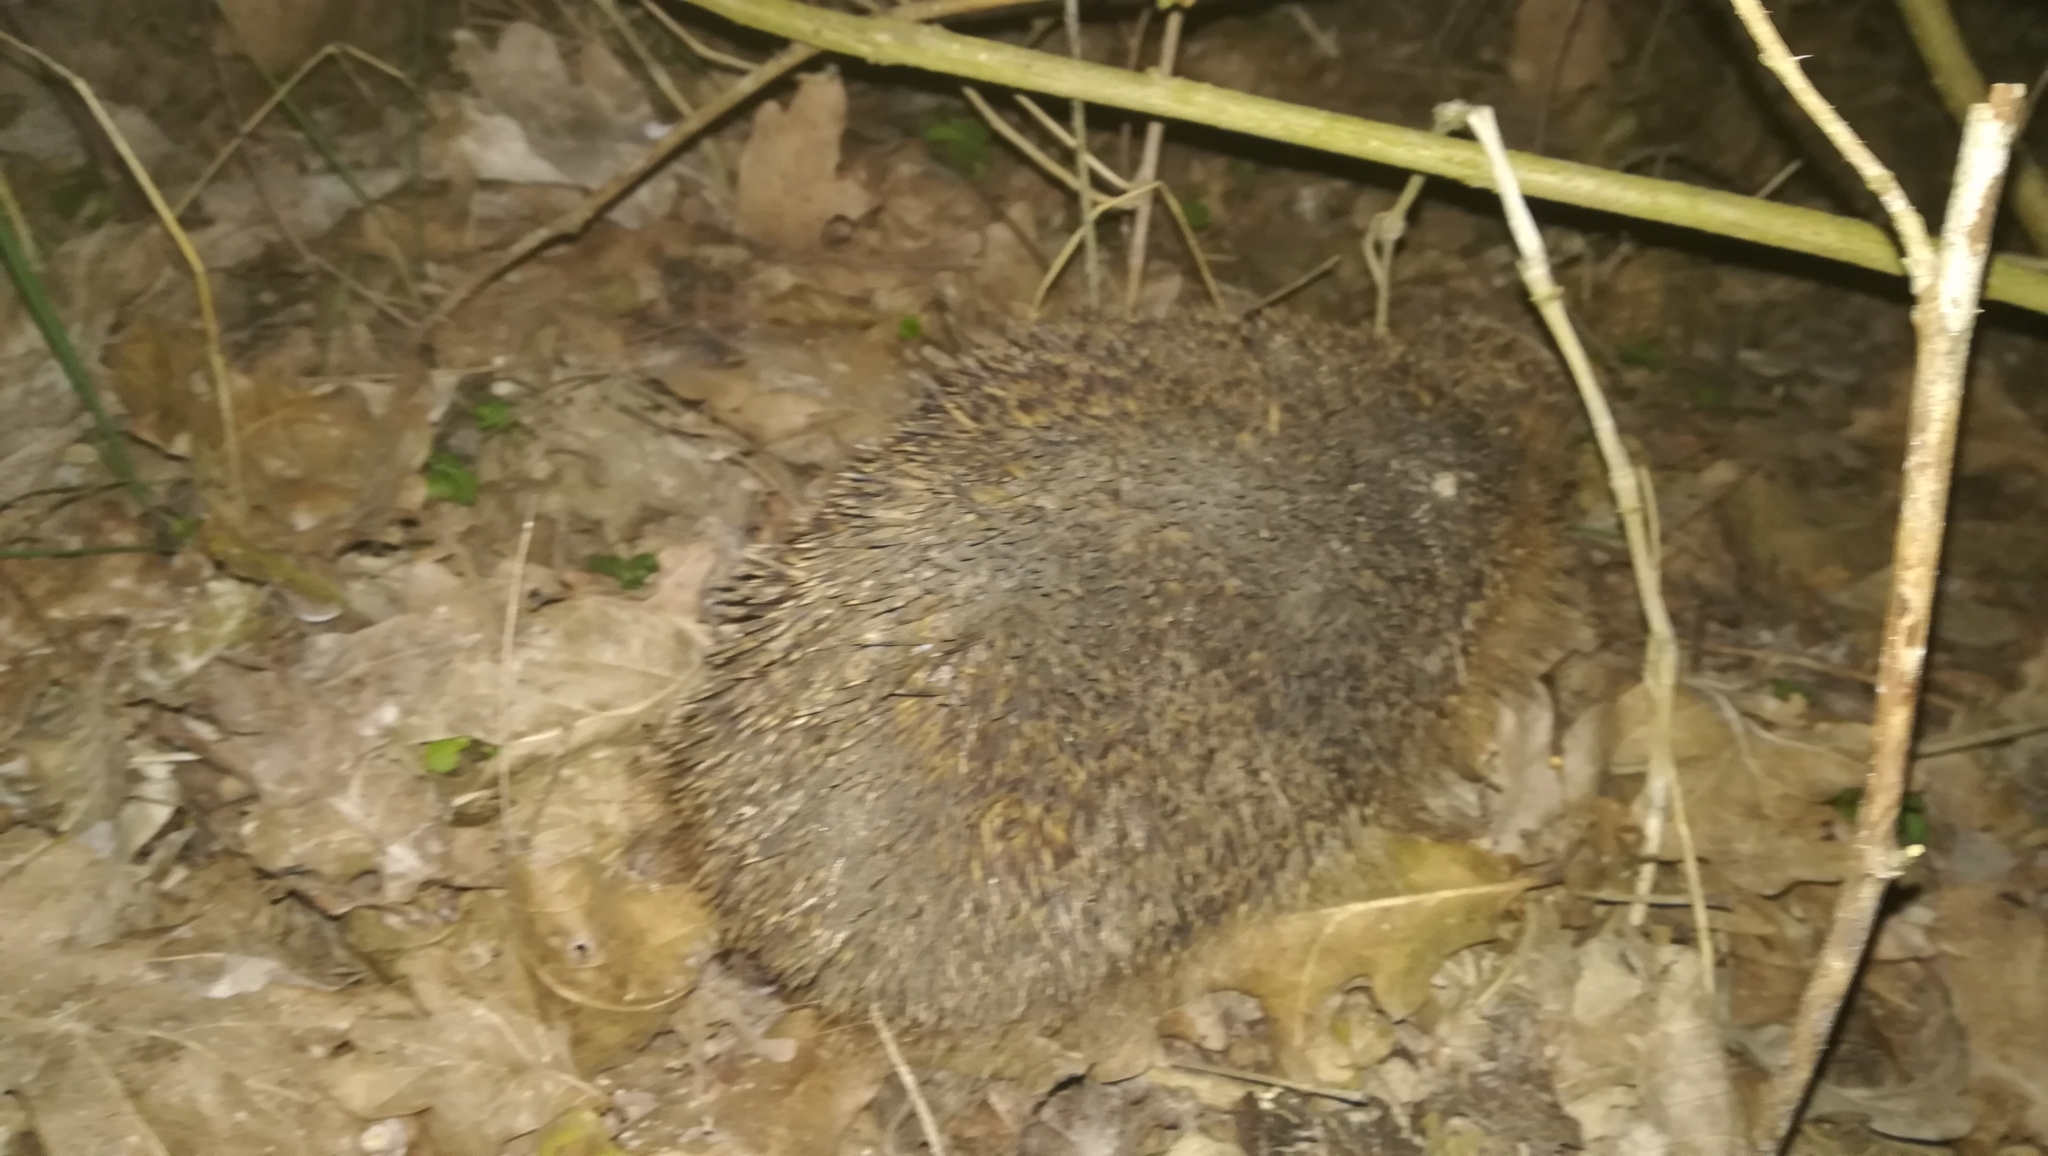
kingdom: Animalia
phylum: Chordata
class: Mammalia
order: Erinaceomorpha
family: Erinaceidae
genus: Erinaceus
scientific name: Erinaceus europaeus
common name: West european hedgehog
